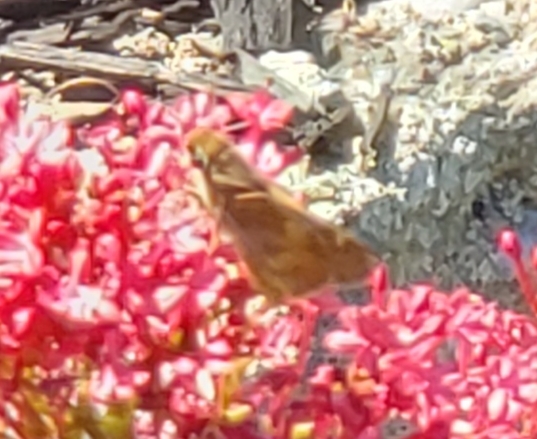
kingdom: Animalia
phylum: Arthropoda
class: Insecta
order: Lepidoptera
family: Hesperiidae
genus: Lon
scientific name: Lon melane
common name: Umber skipper
